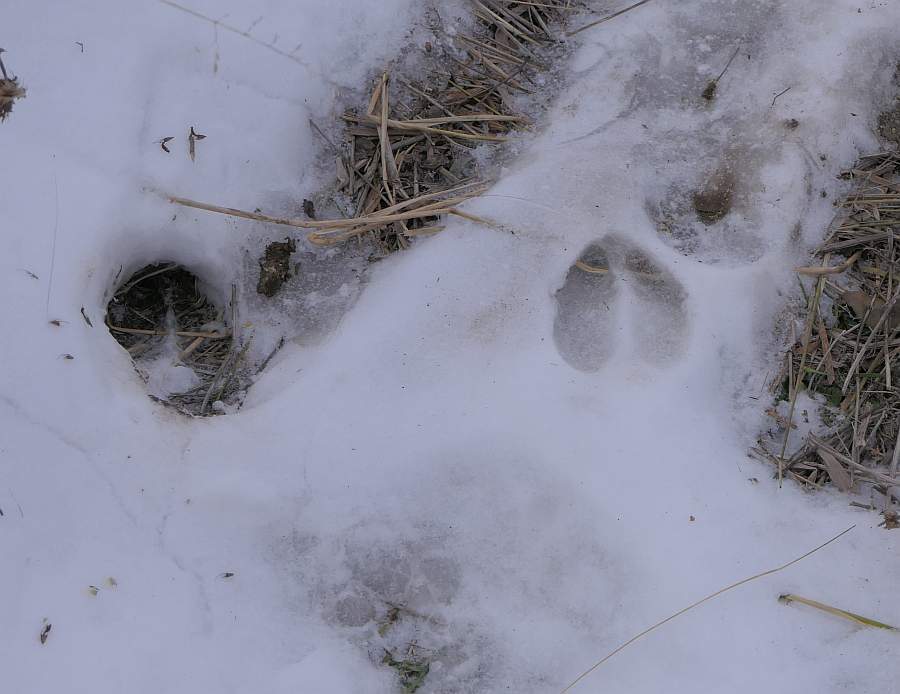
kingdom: Animalia
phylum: Chordata
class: Mammalia
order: Artiodactyla
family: Cervidae
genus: Odocoileus
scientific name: Odocoileus virginianus
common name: White-tailed deer
